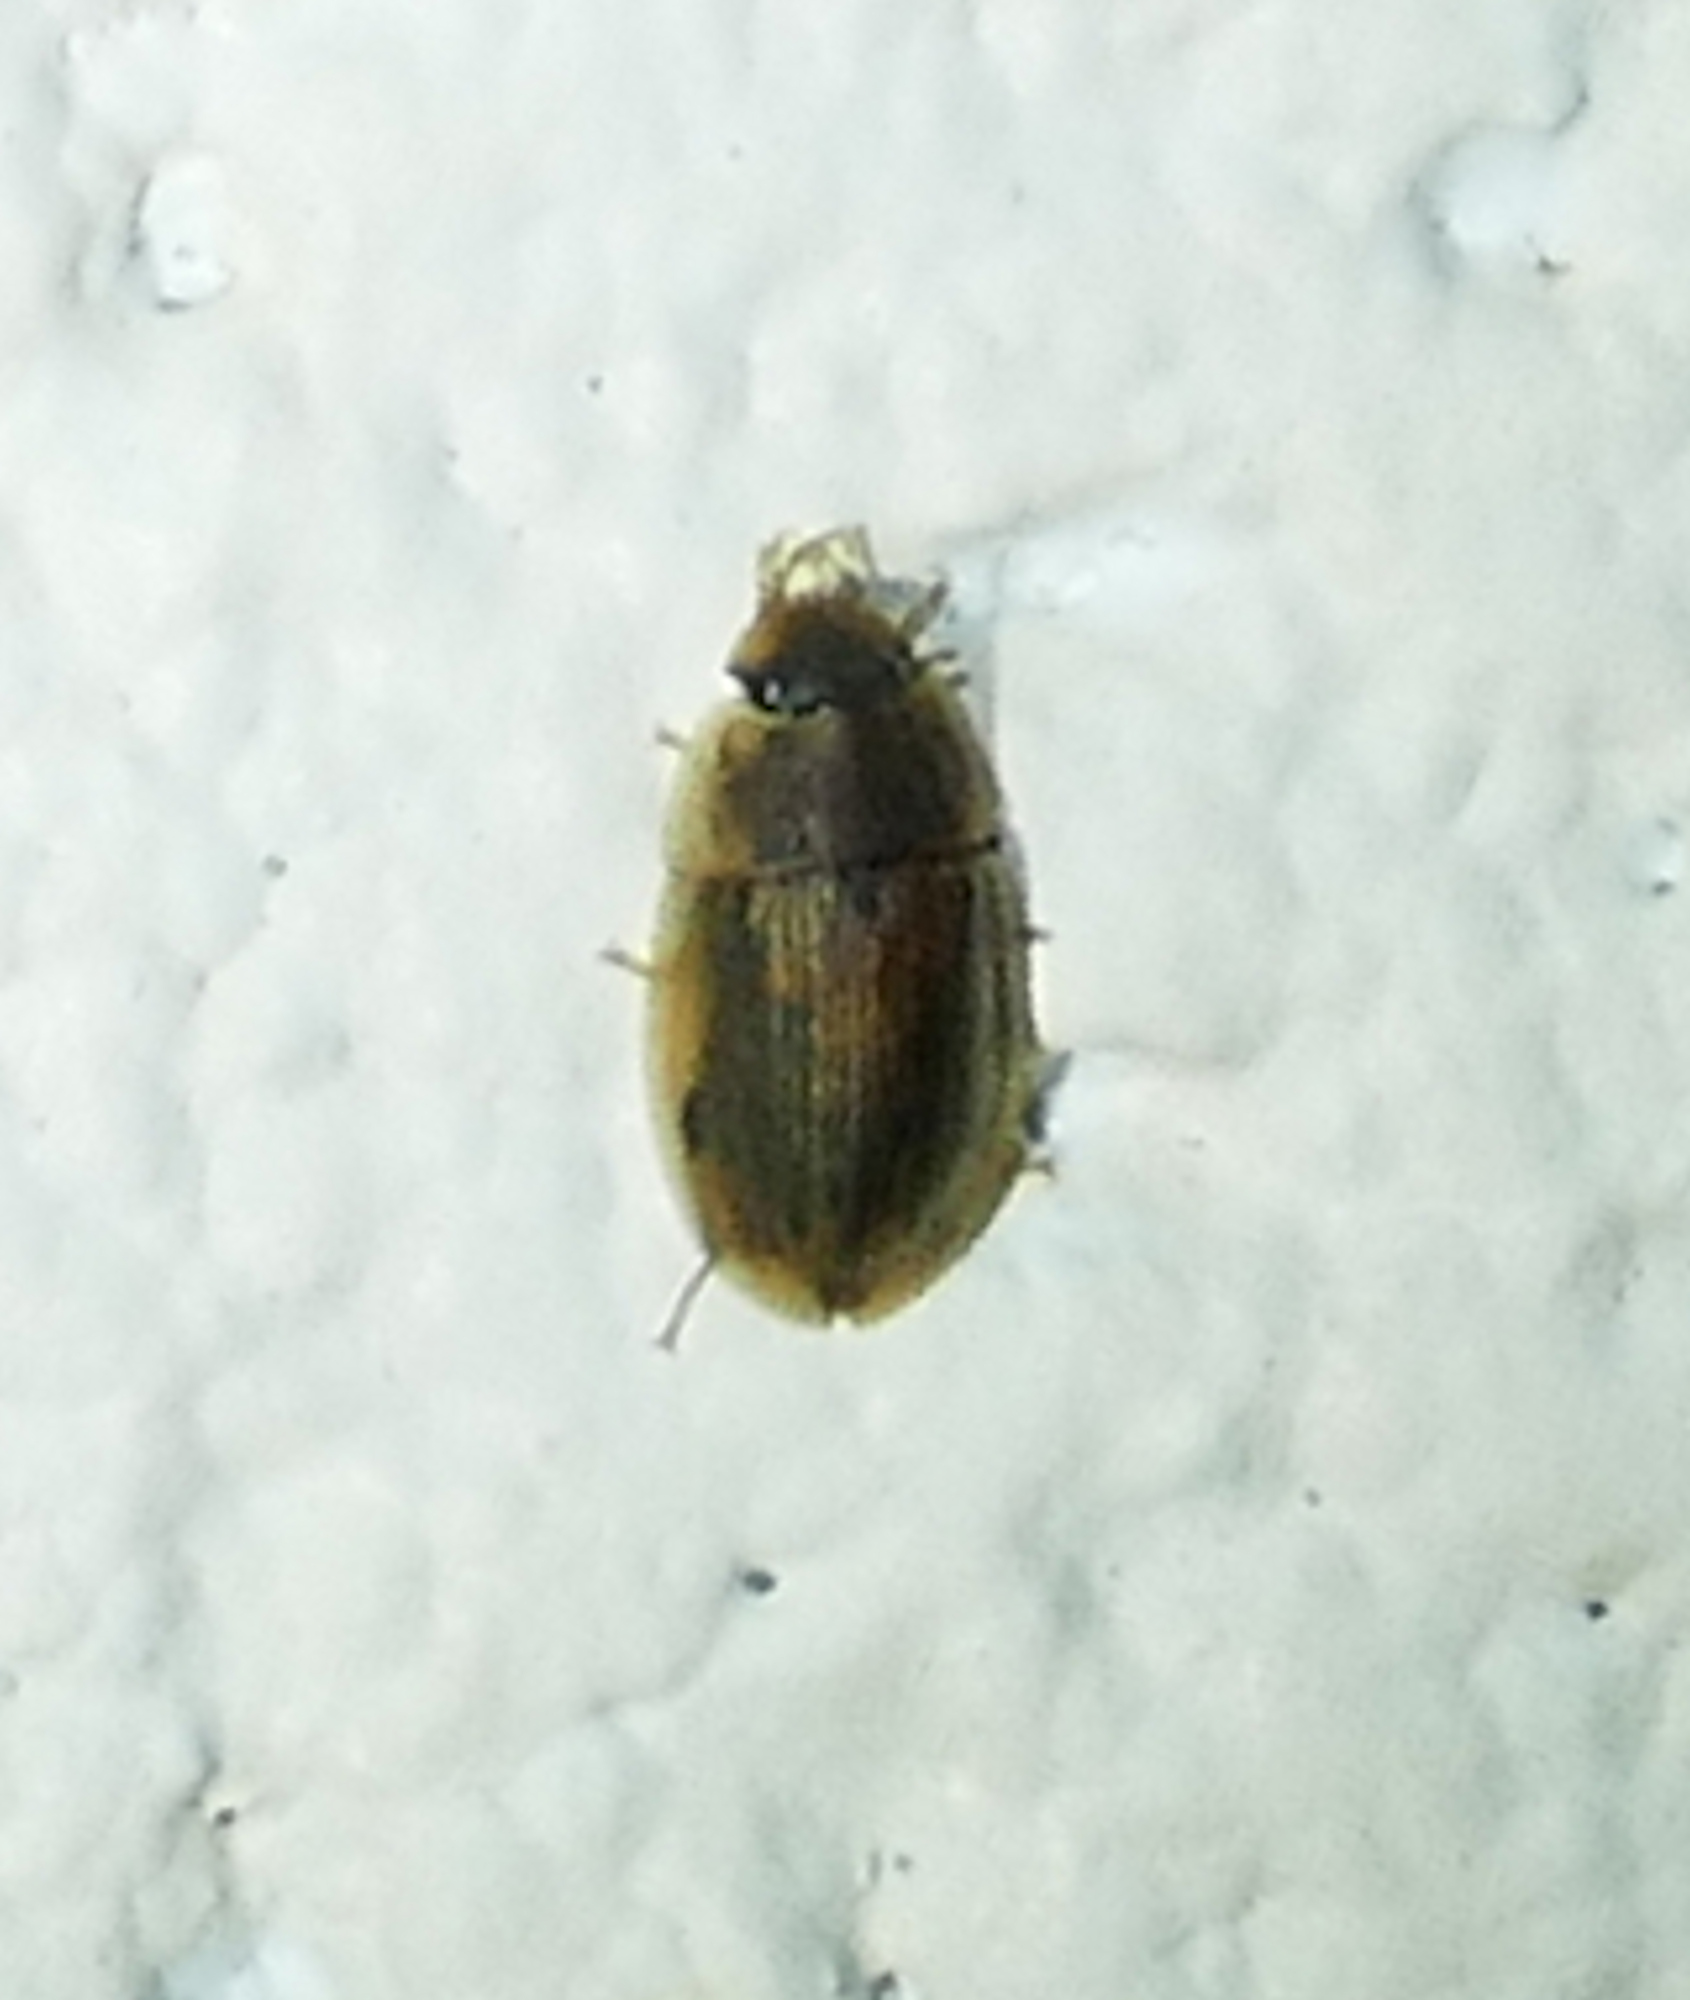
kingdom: Animalia
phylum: Arthropoda
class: Insecta
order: Coleoptera
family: Hydrophilidae
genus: Helobata
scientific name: Helobata larvalis
